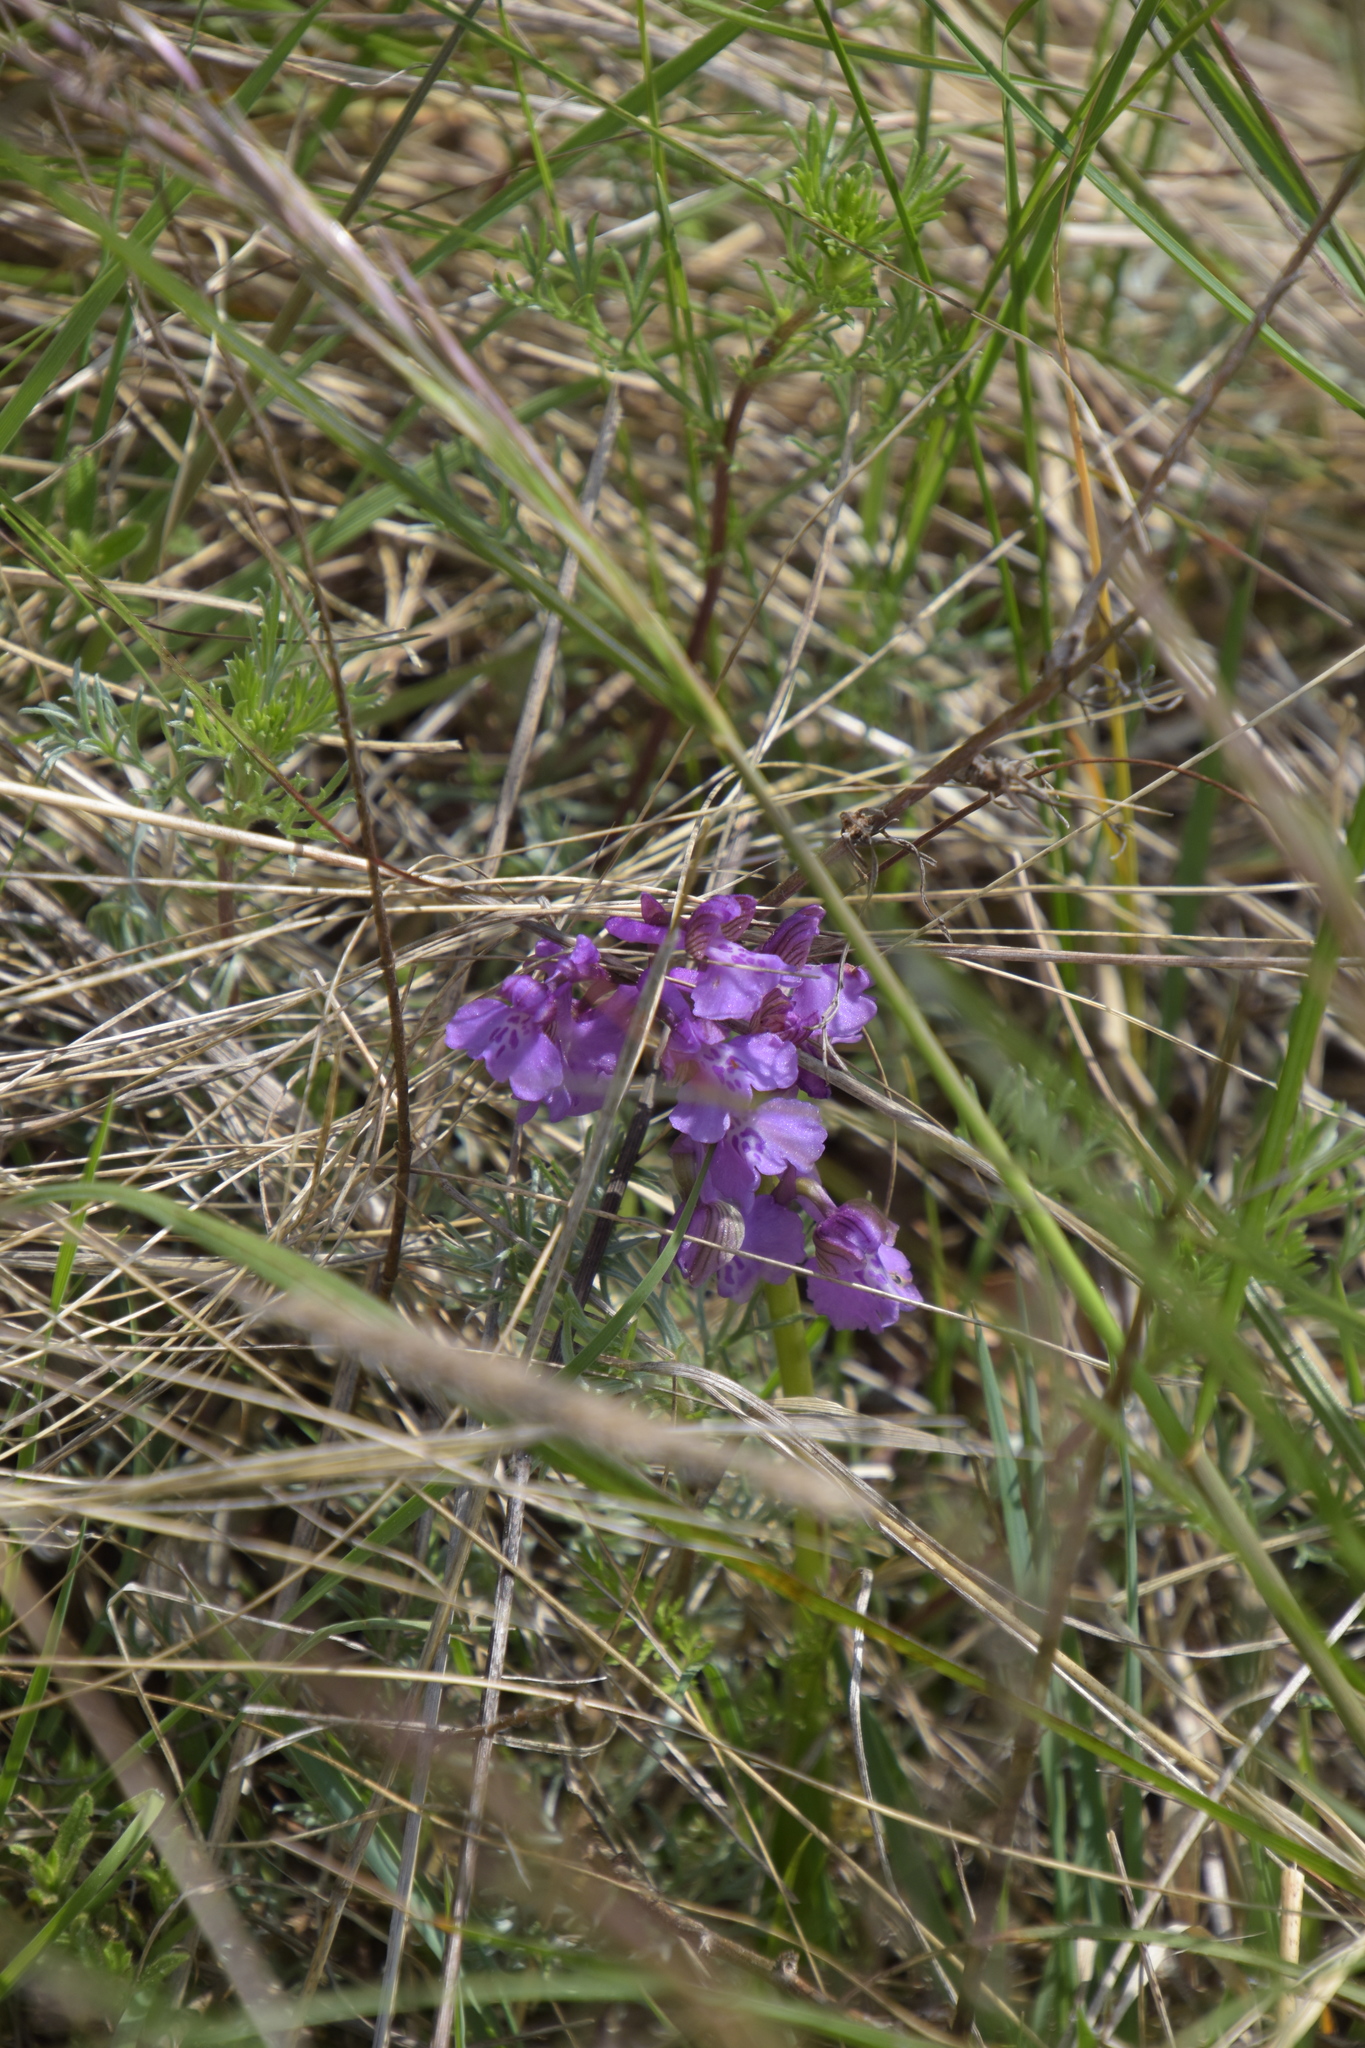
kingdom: Plantae
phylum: Tracheophyta
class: Liliopsida
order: Asparagales
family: Orchidaceae
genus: Anacamptis
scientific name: Anacamptis morio
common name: Green-winged orchid
